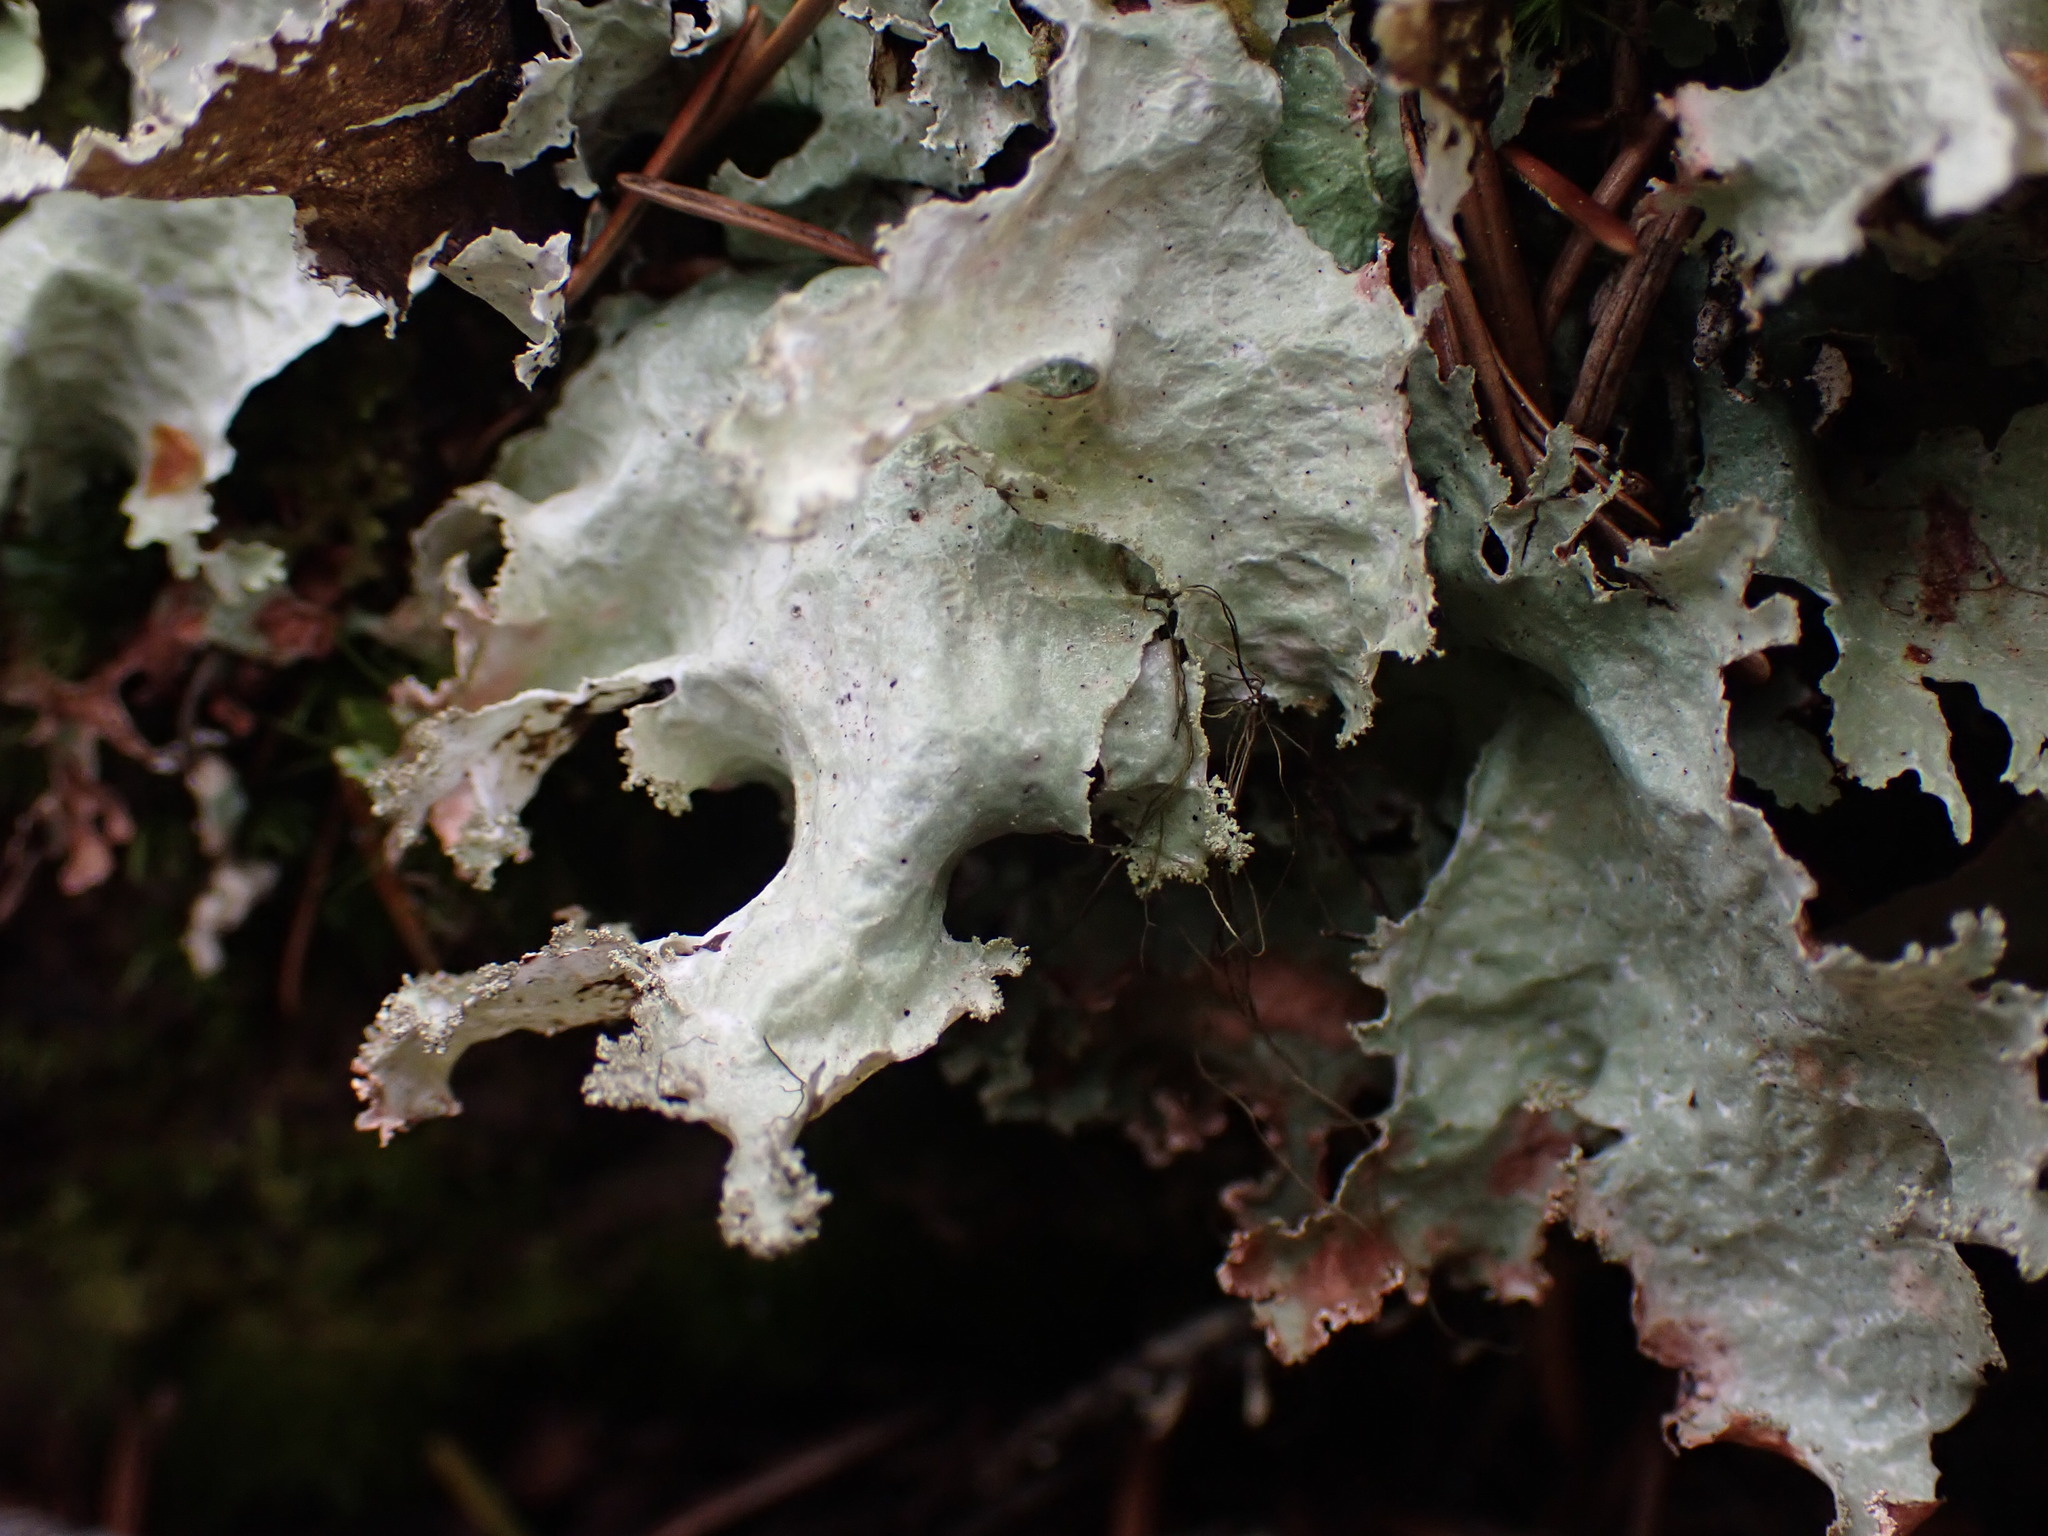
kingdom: Fungi
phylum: Ascomycota
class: Lecanoromycetes
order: Lecanorales
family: Parmeliaceae
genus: Platismatia
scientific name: Platismatia glauca
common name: Varied rag lichen
